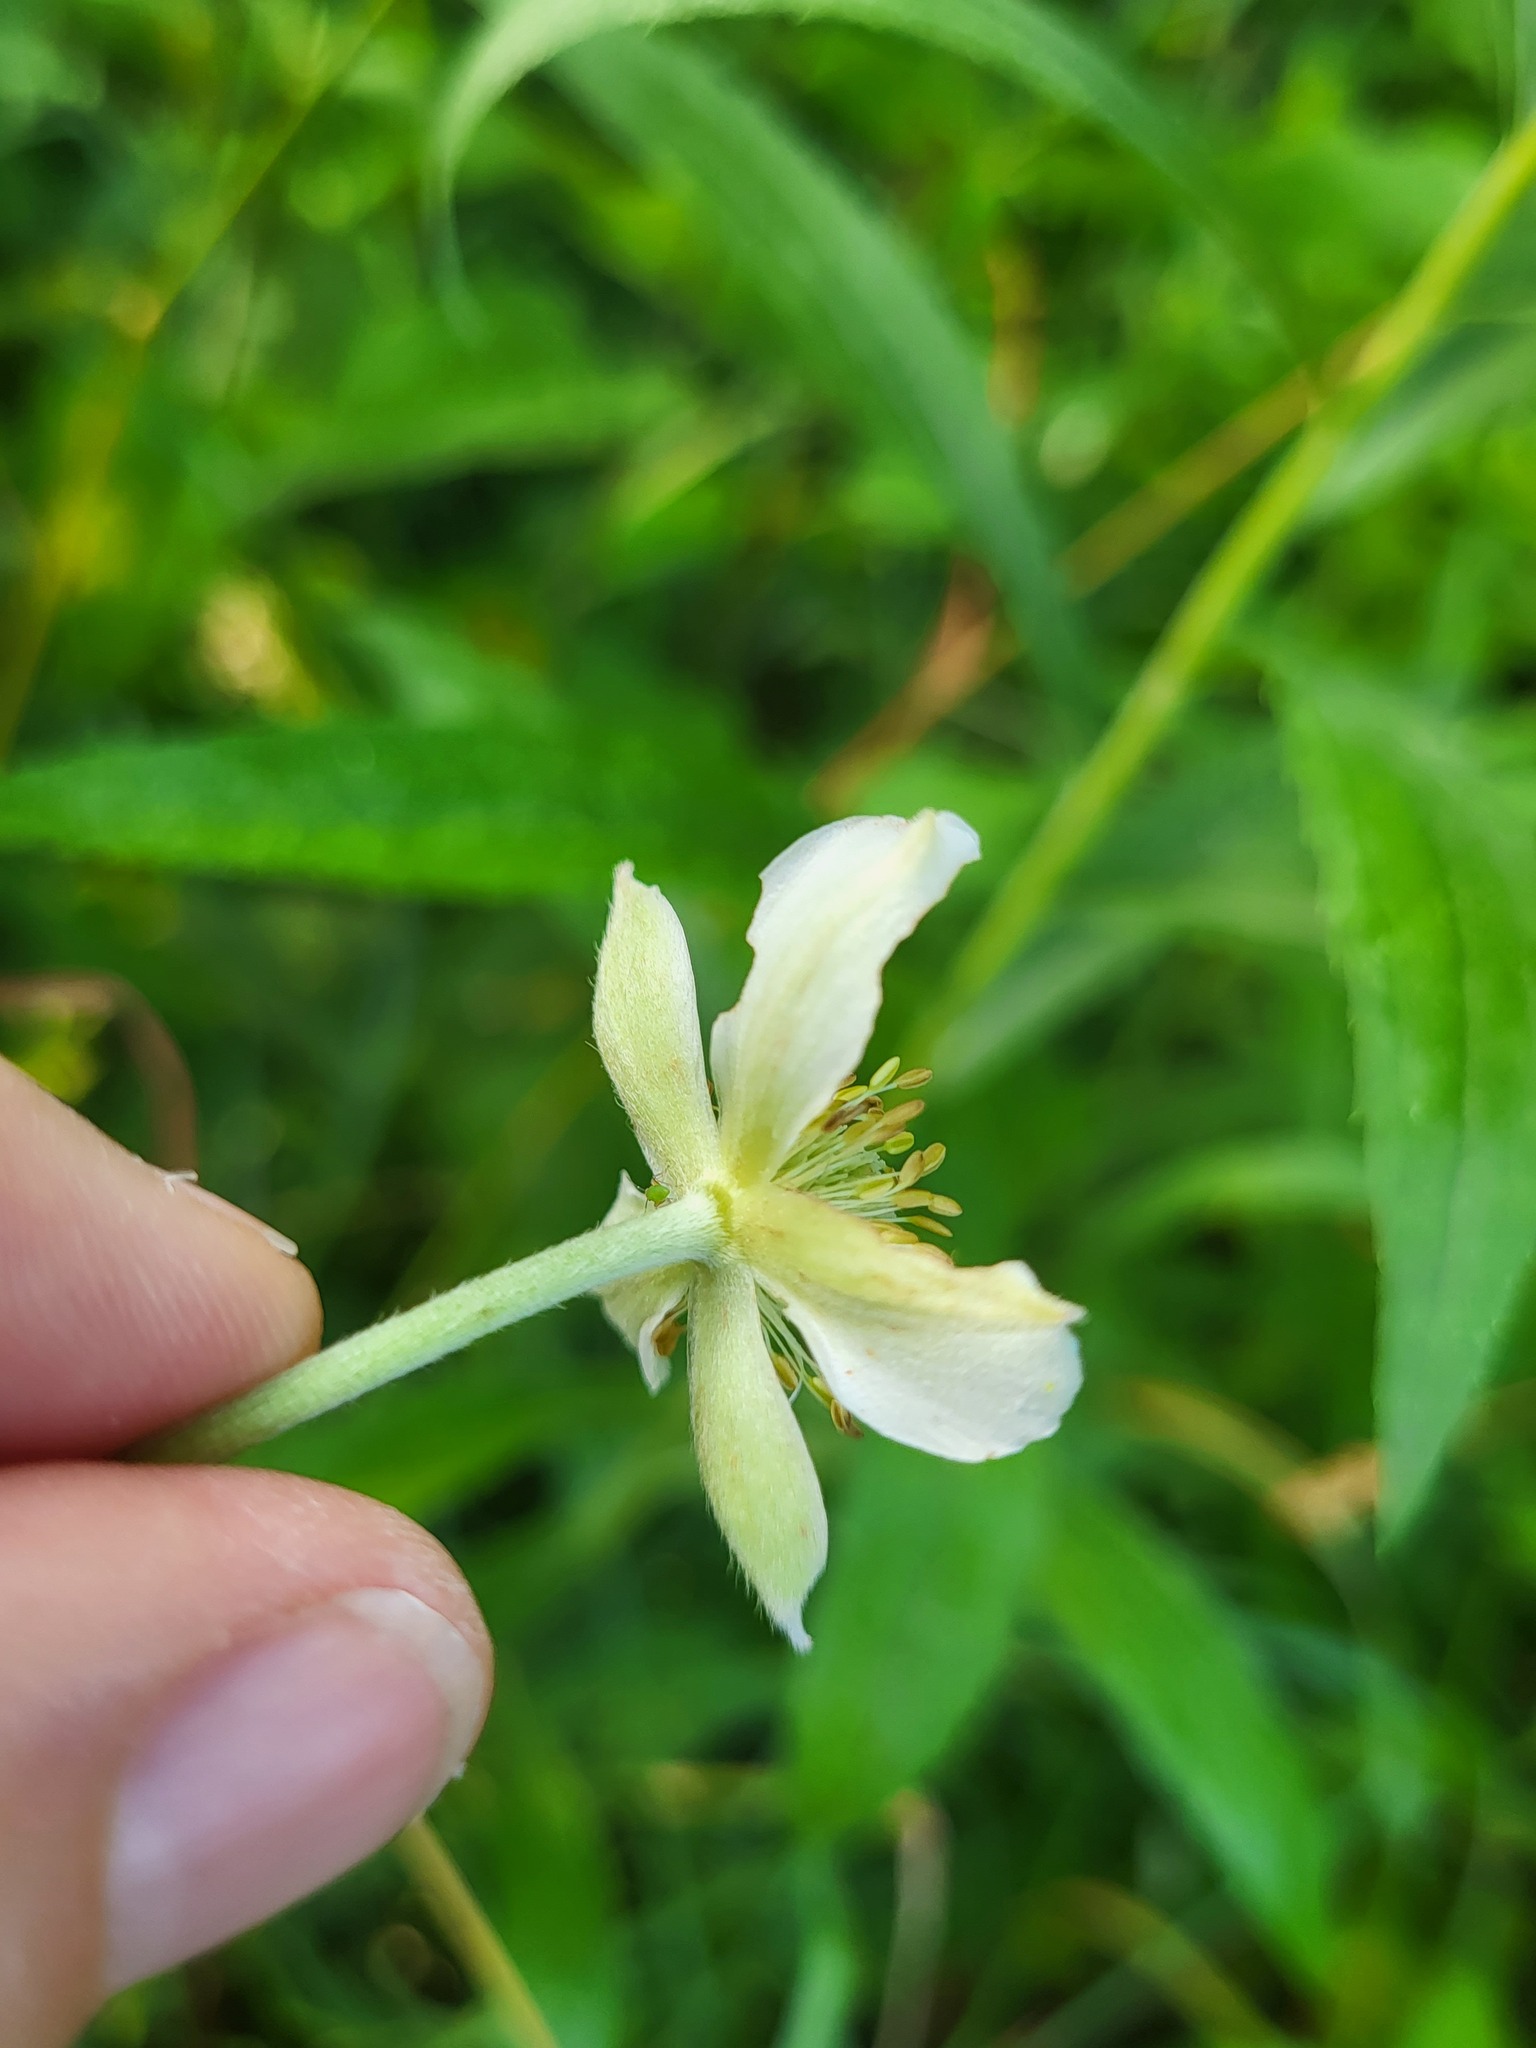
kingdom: Plantae
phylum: Tracheophyta
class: Magnoliopsida
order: Ranunculales
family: Ranunculaceae
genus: Anemone
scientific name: Anemone virginiana
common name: Tall anemone
